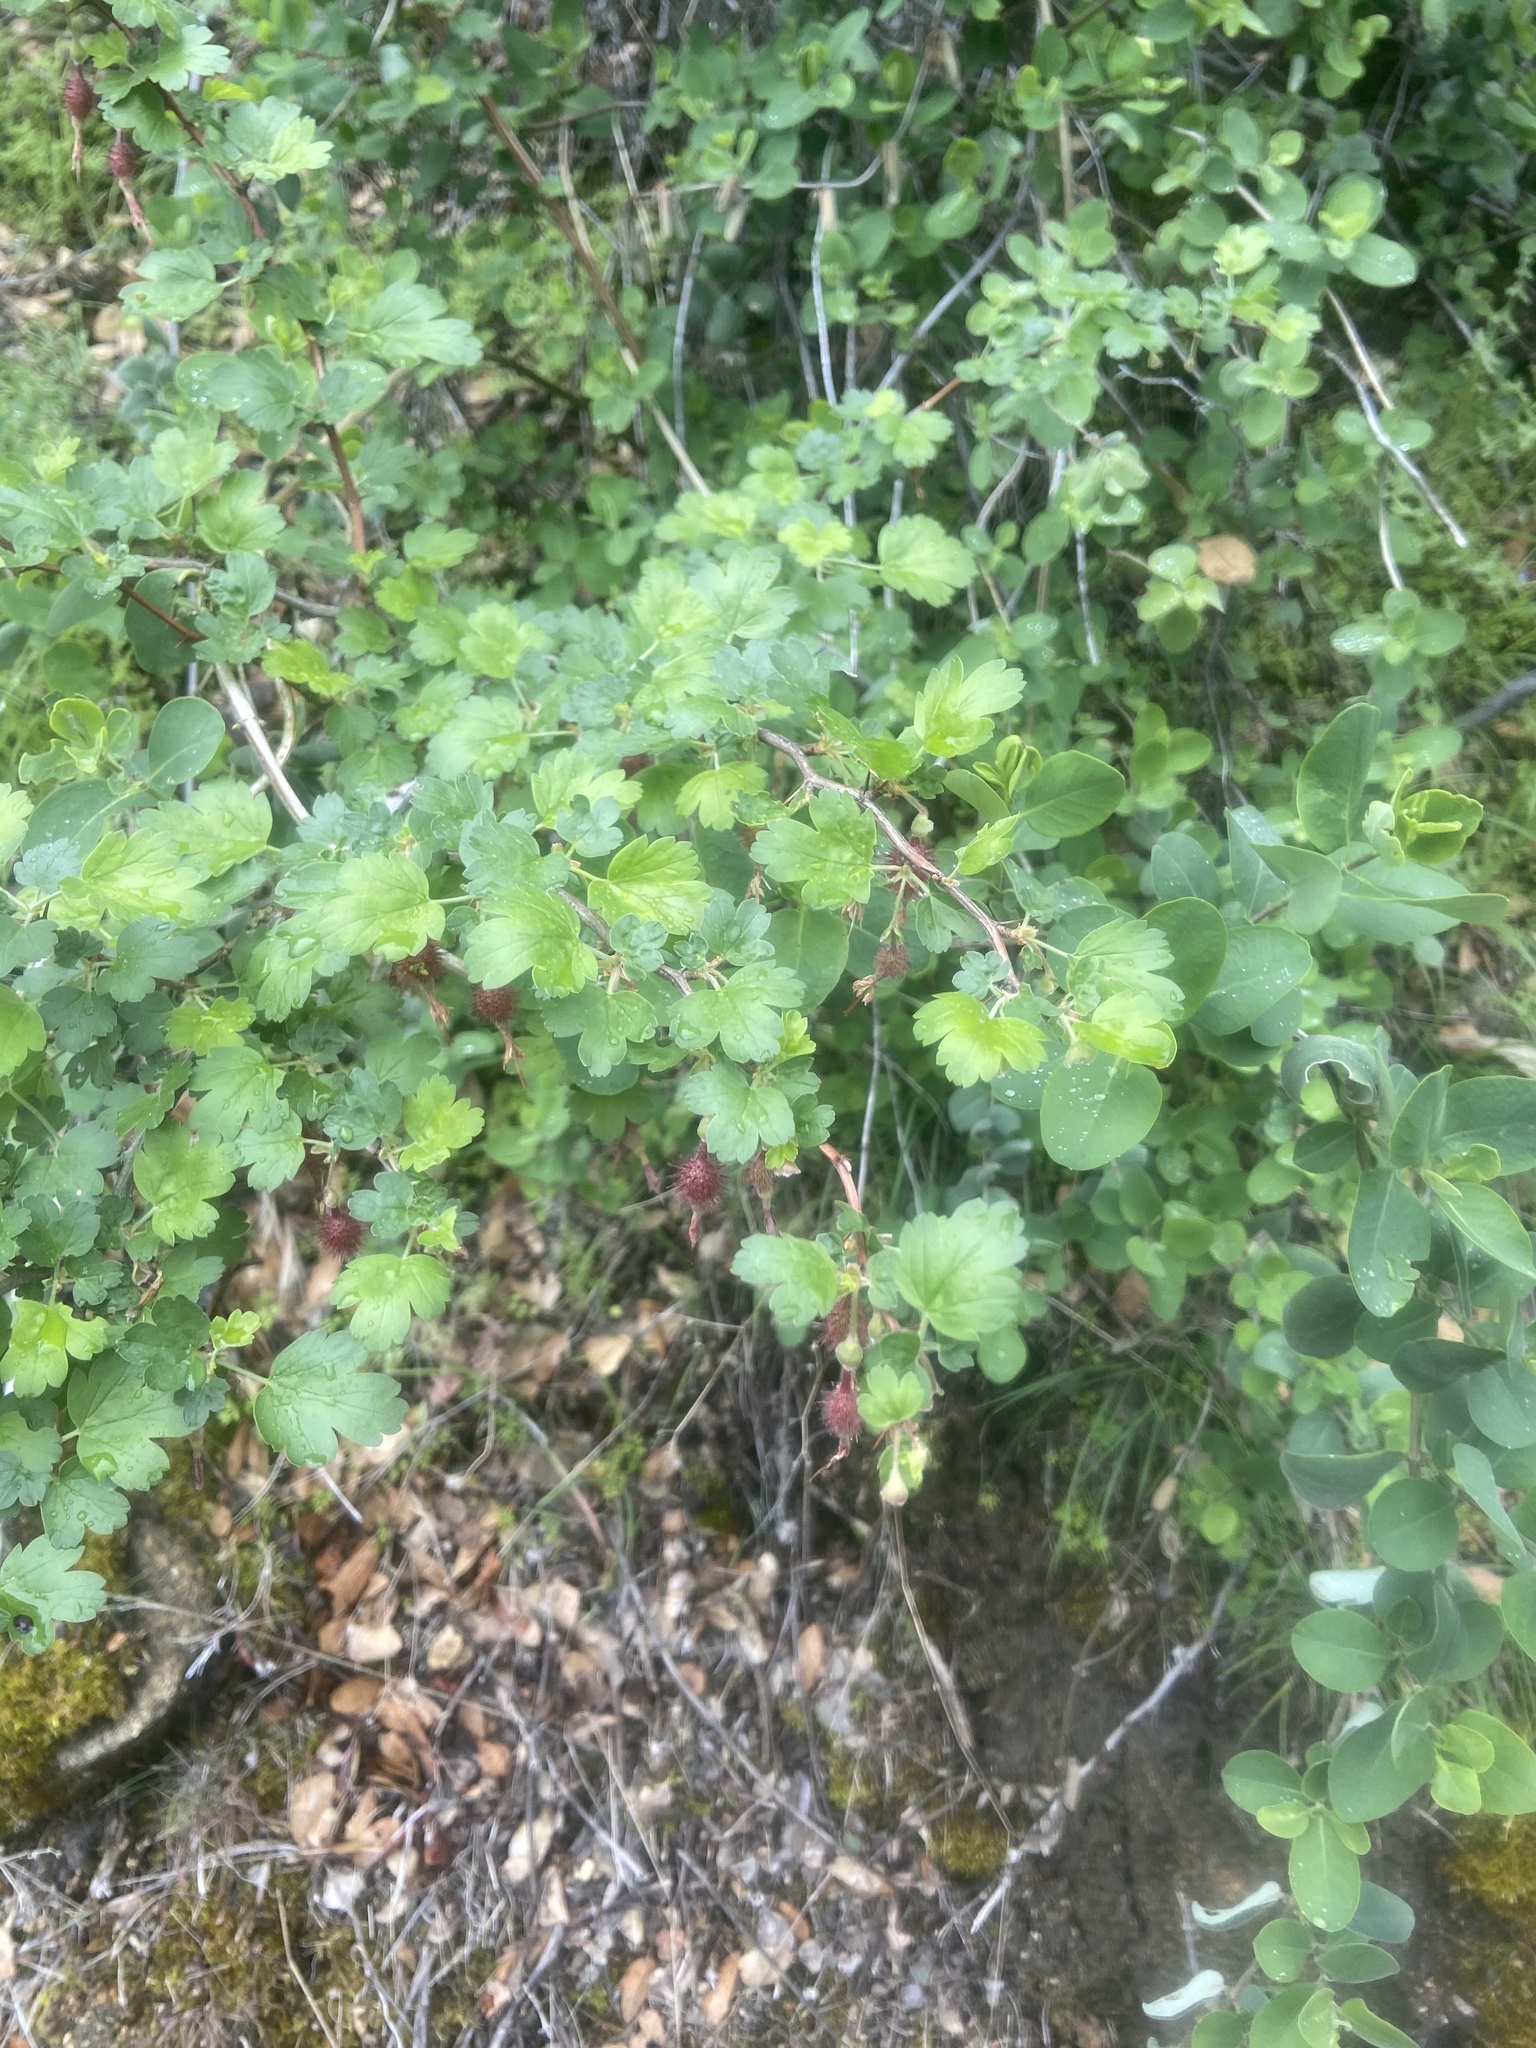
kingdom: Plantae
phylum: Tracheophyta
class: Magnoliopsida
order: Saxifragales
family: Grossulariaceae
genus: Ribes
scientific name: Ribes roezlii
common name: Sierra gooseberry
